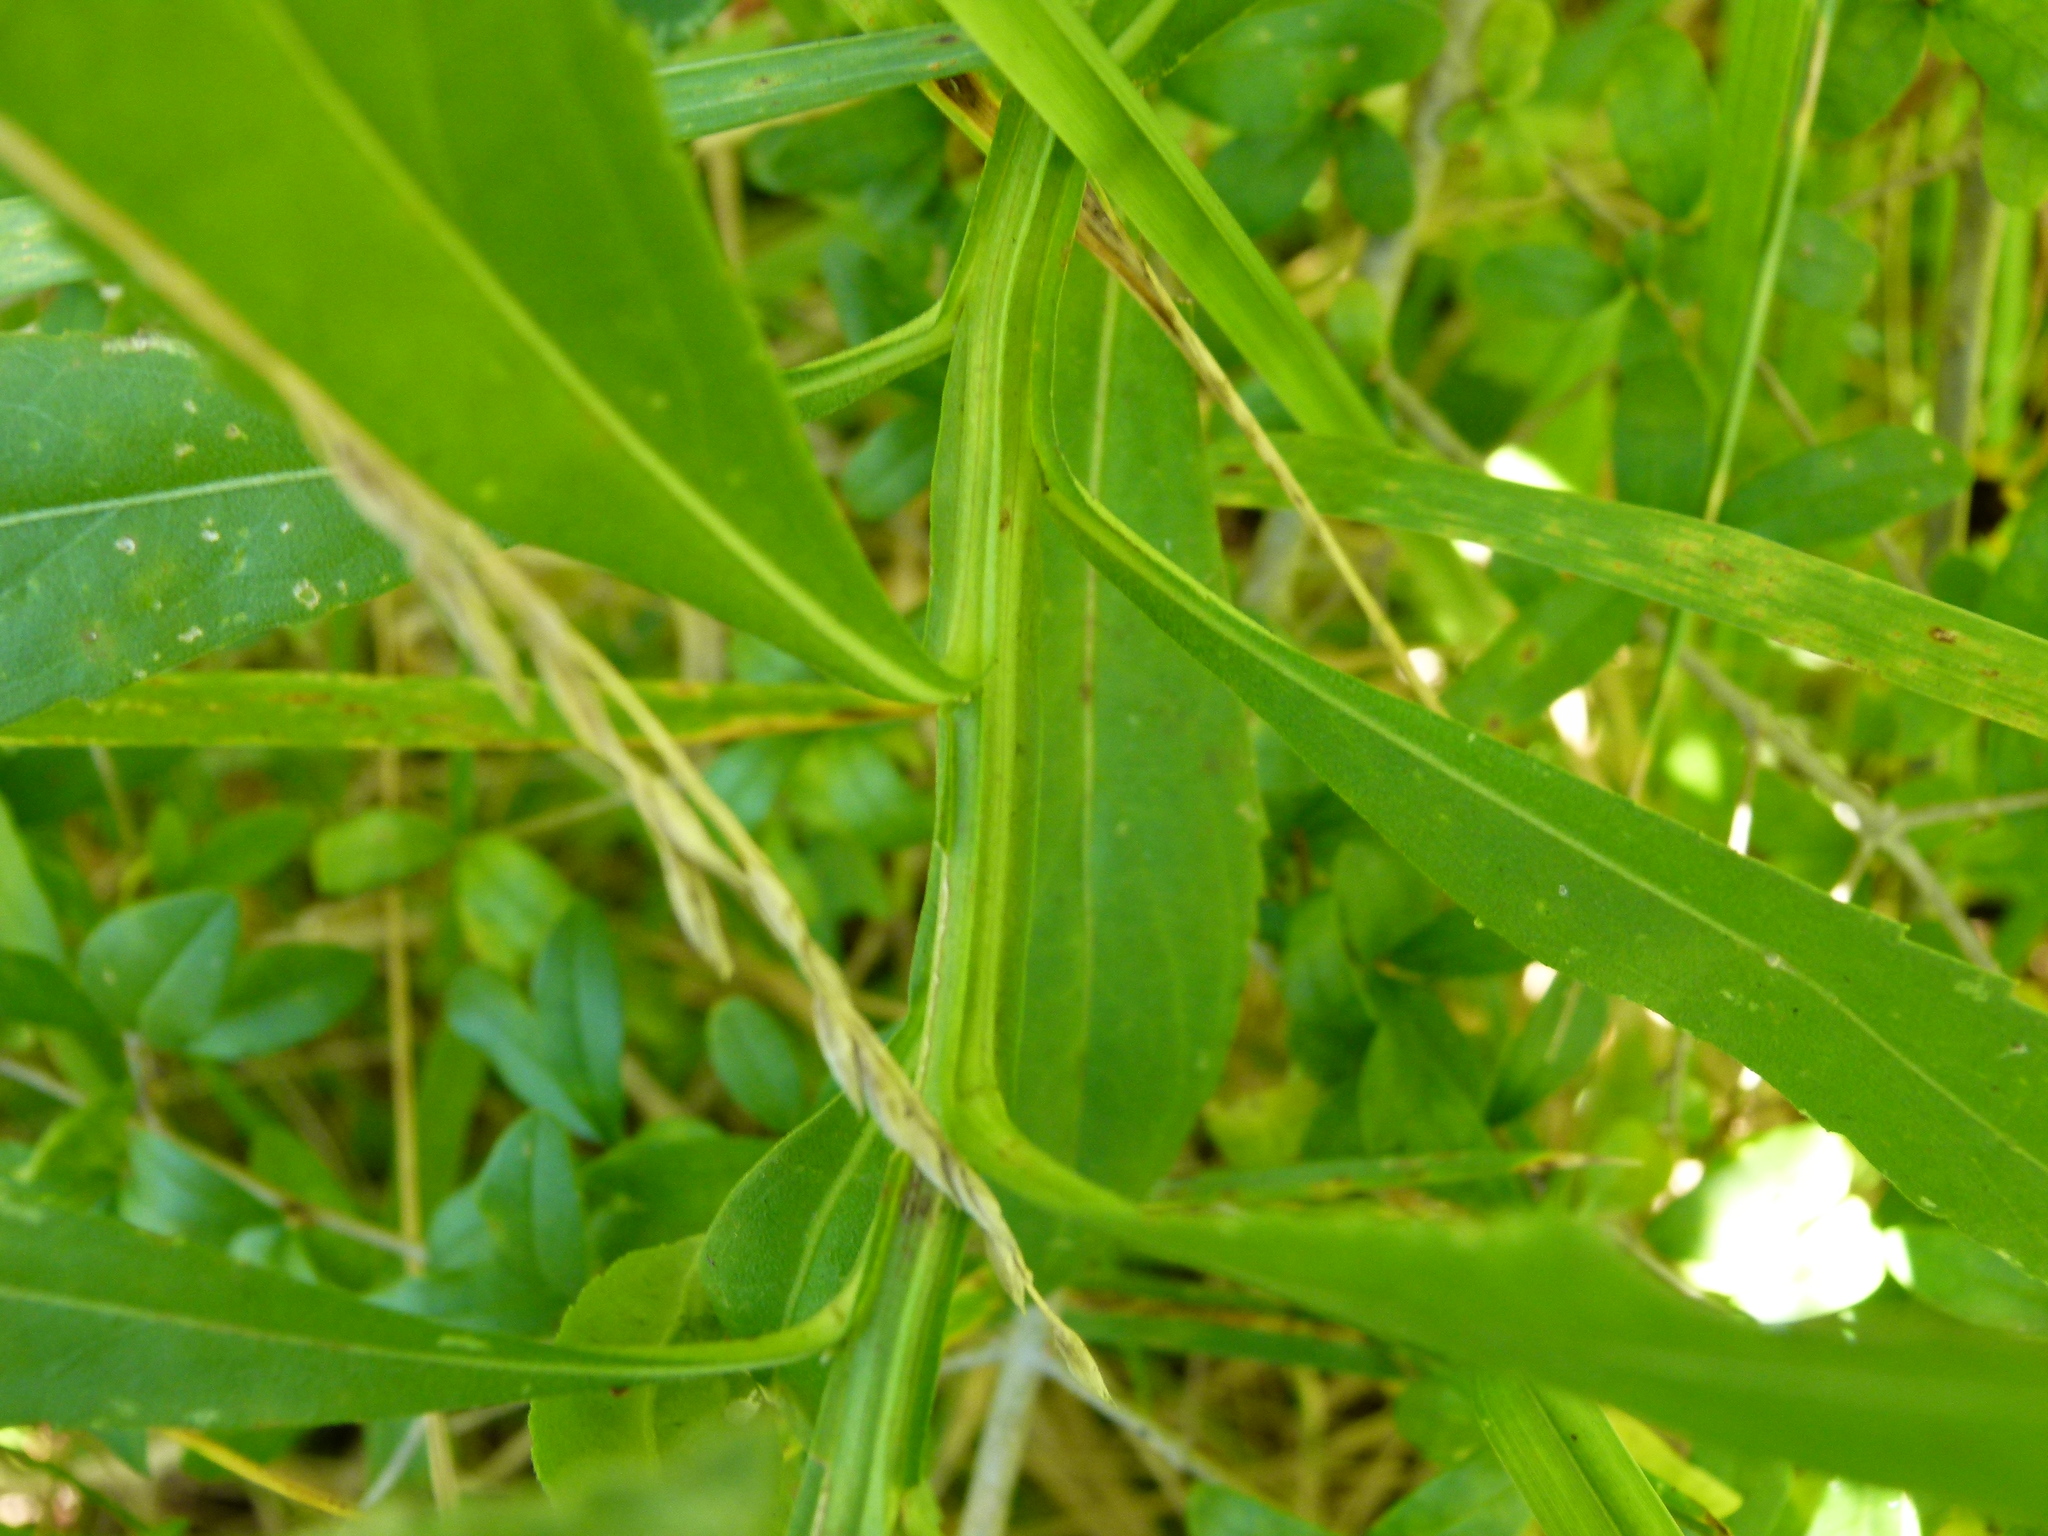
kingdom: Plantae
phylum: Tracheophyta
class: Magnoliopsida
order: Asterales
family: Asteraceae
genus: Helenium
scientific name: Helenium autumnale
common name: Sneezeweed
